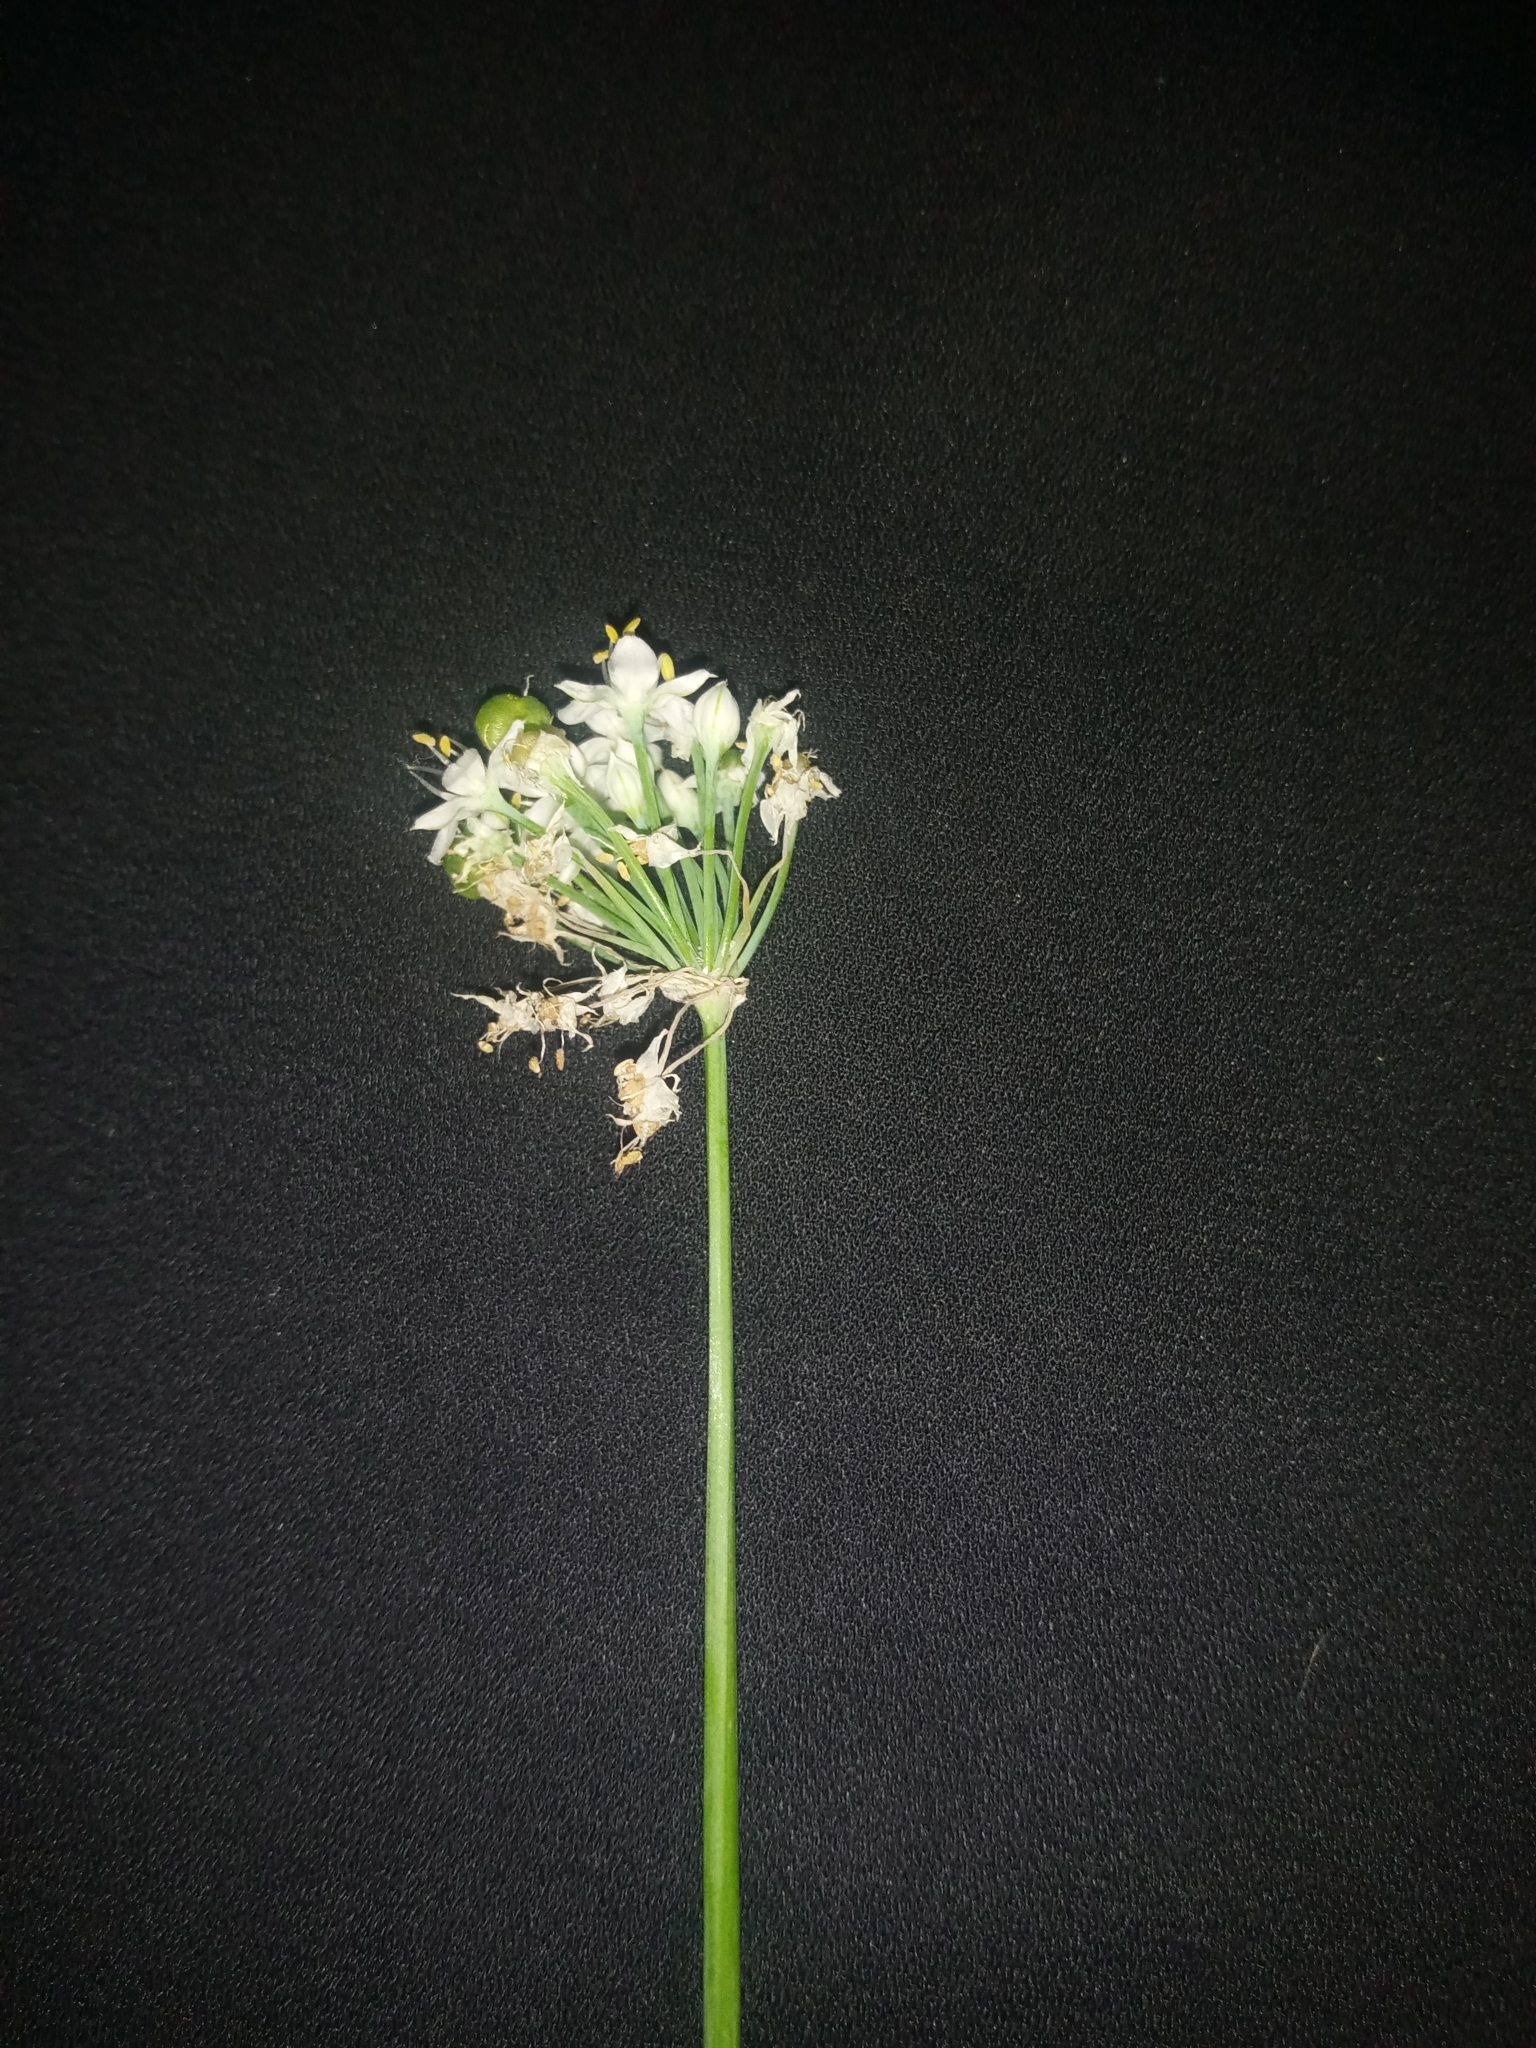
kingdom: Plantae
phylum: Tracheophyta
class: Liliopsida
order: Asparagales
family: Amaryllidaceae
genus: Allium
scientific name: Allium tuberosum
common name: Chinese chives
